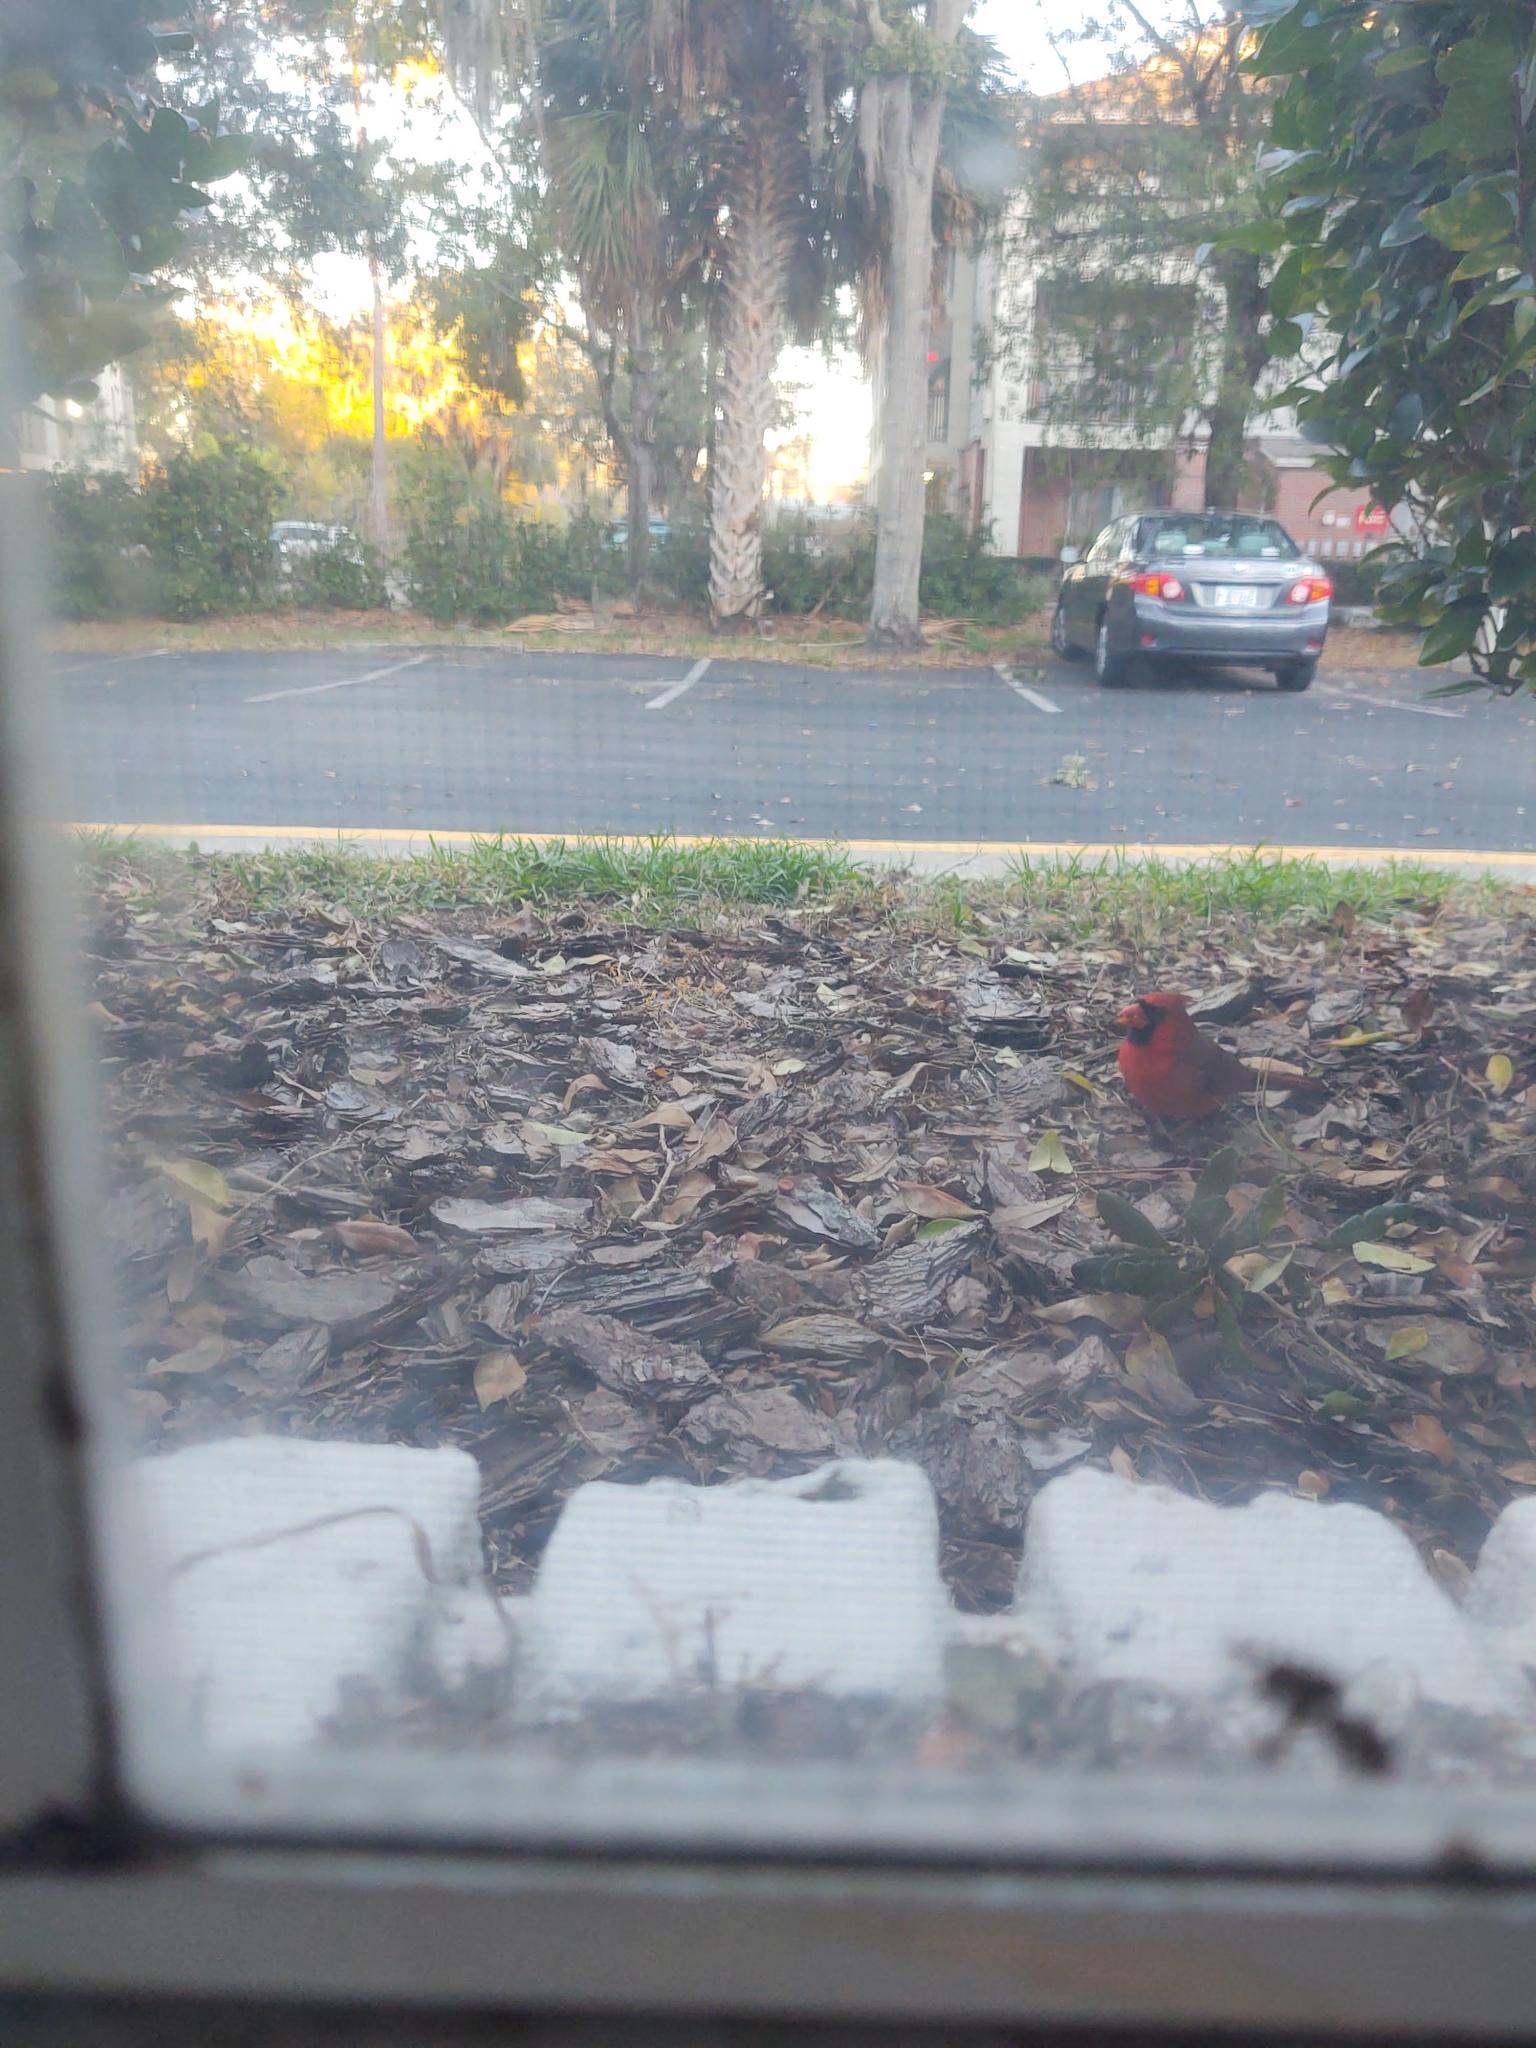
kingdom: Animalia
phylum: Chordata
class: Aves
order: Passeriformes
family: Cardinalidae
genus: Cardinalis
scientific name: Cardinalis cardinalis
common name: Northern cardinal
